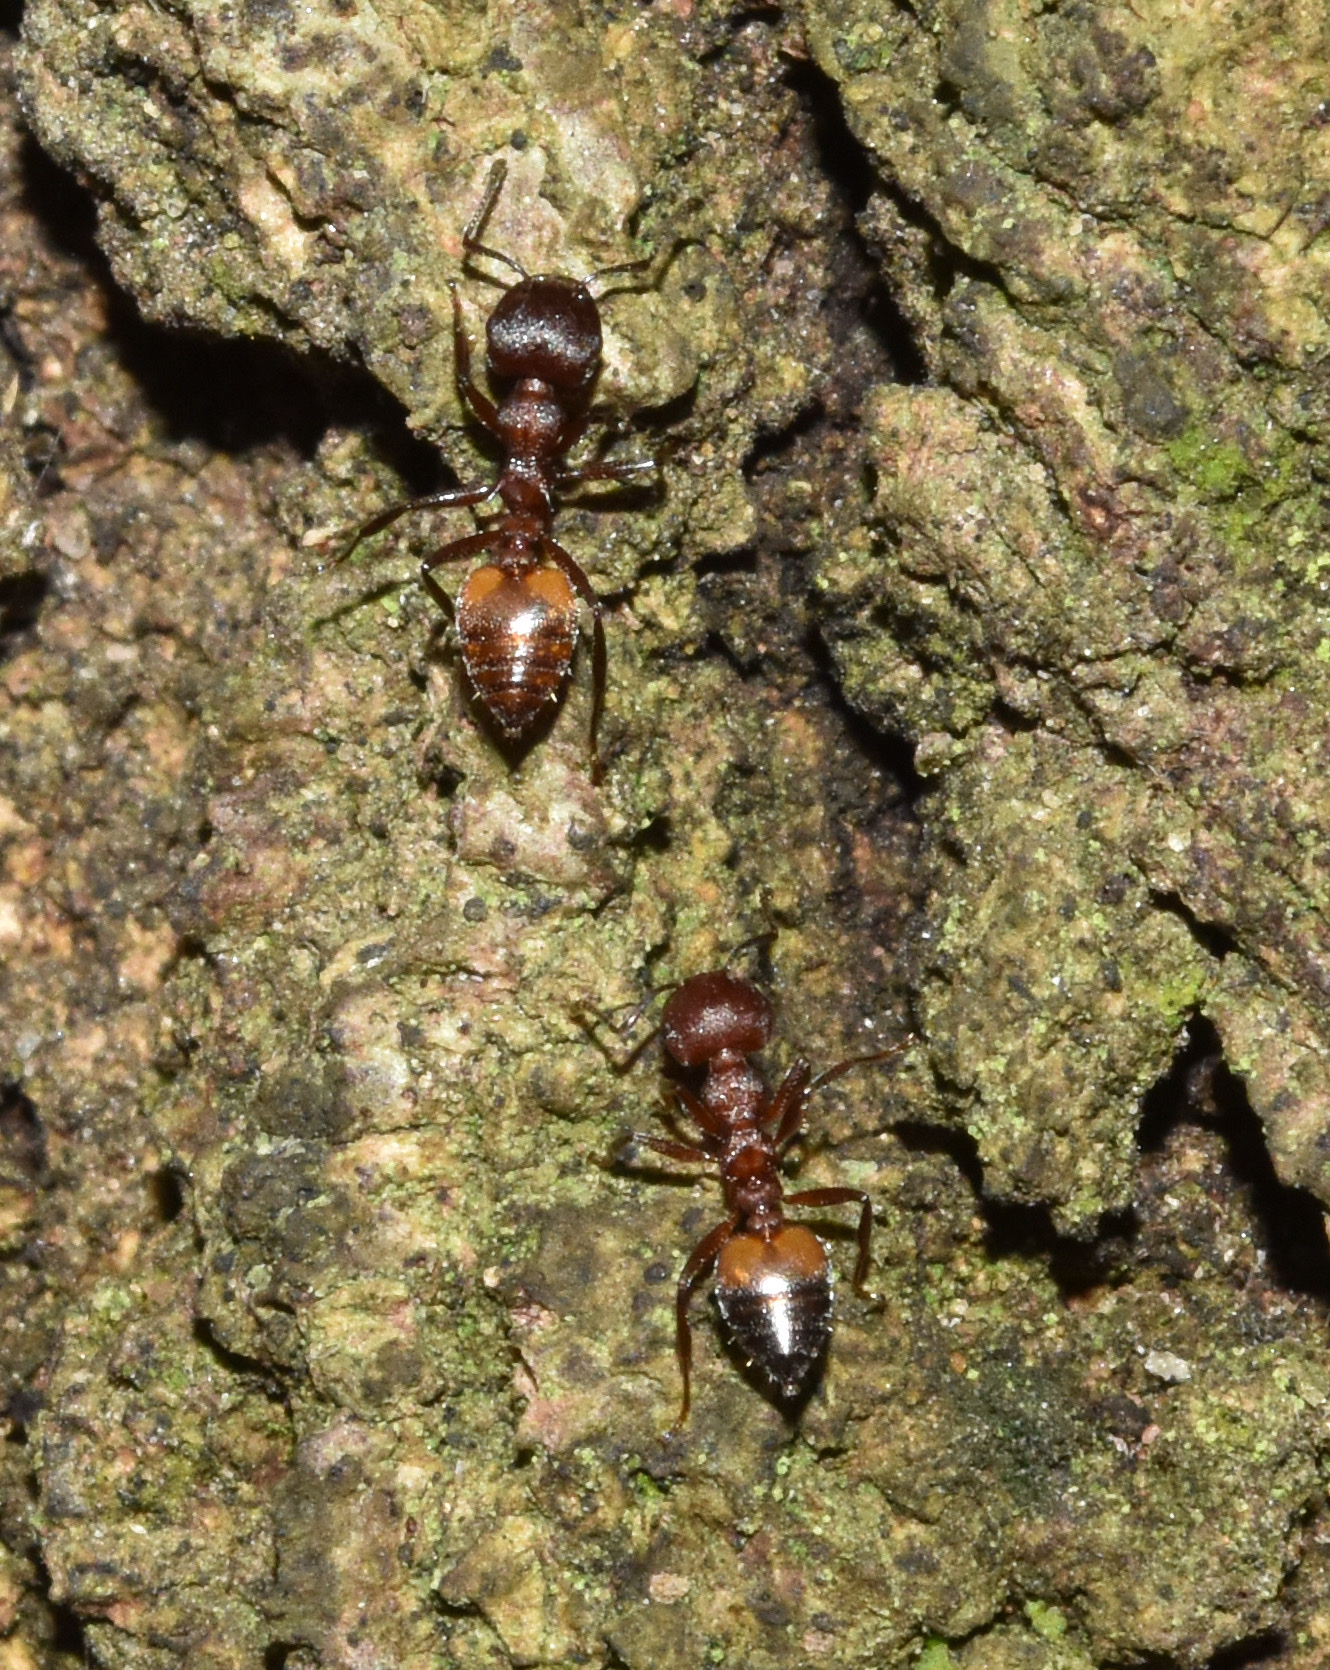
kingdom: Animalia
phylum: Arthropoda
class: Insecta
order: Hymenoptera
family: Formicidae
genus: Crematogaster
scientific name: Crematogaster castanea
